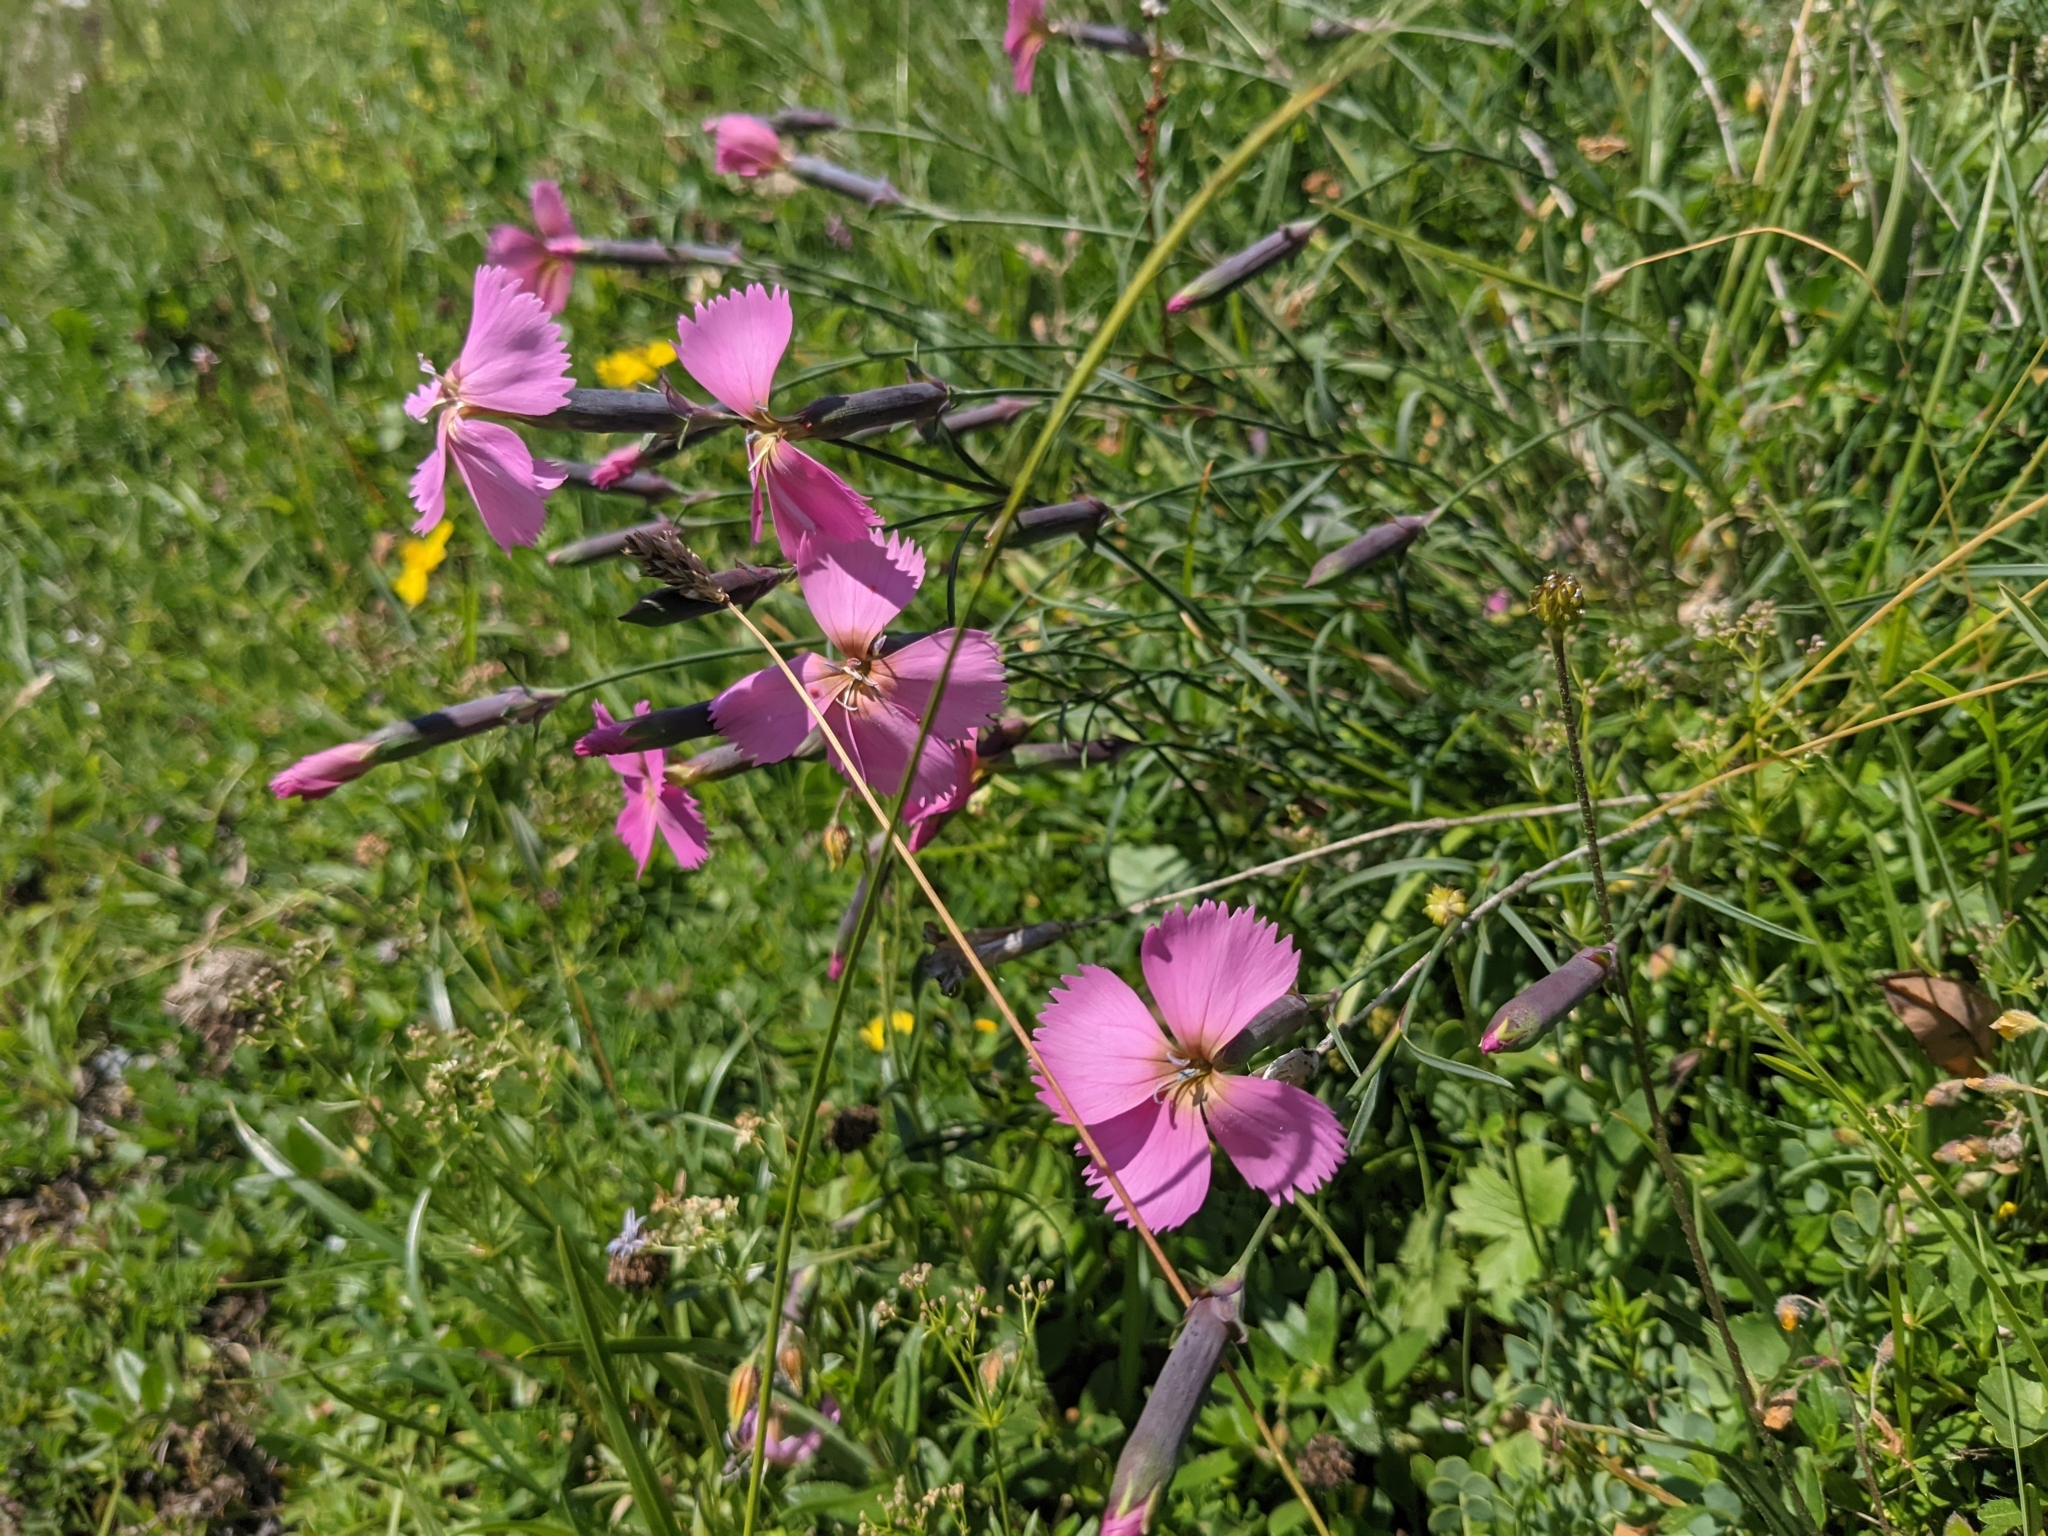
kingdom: Plantae
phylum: Tracheophyta
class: Magnoliopsida
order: Caryophyllales
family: Caryophyllaceae
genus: Dianthus
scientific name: Dianthus sylvestris
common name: Wood pink
